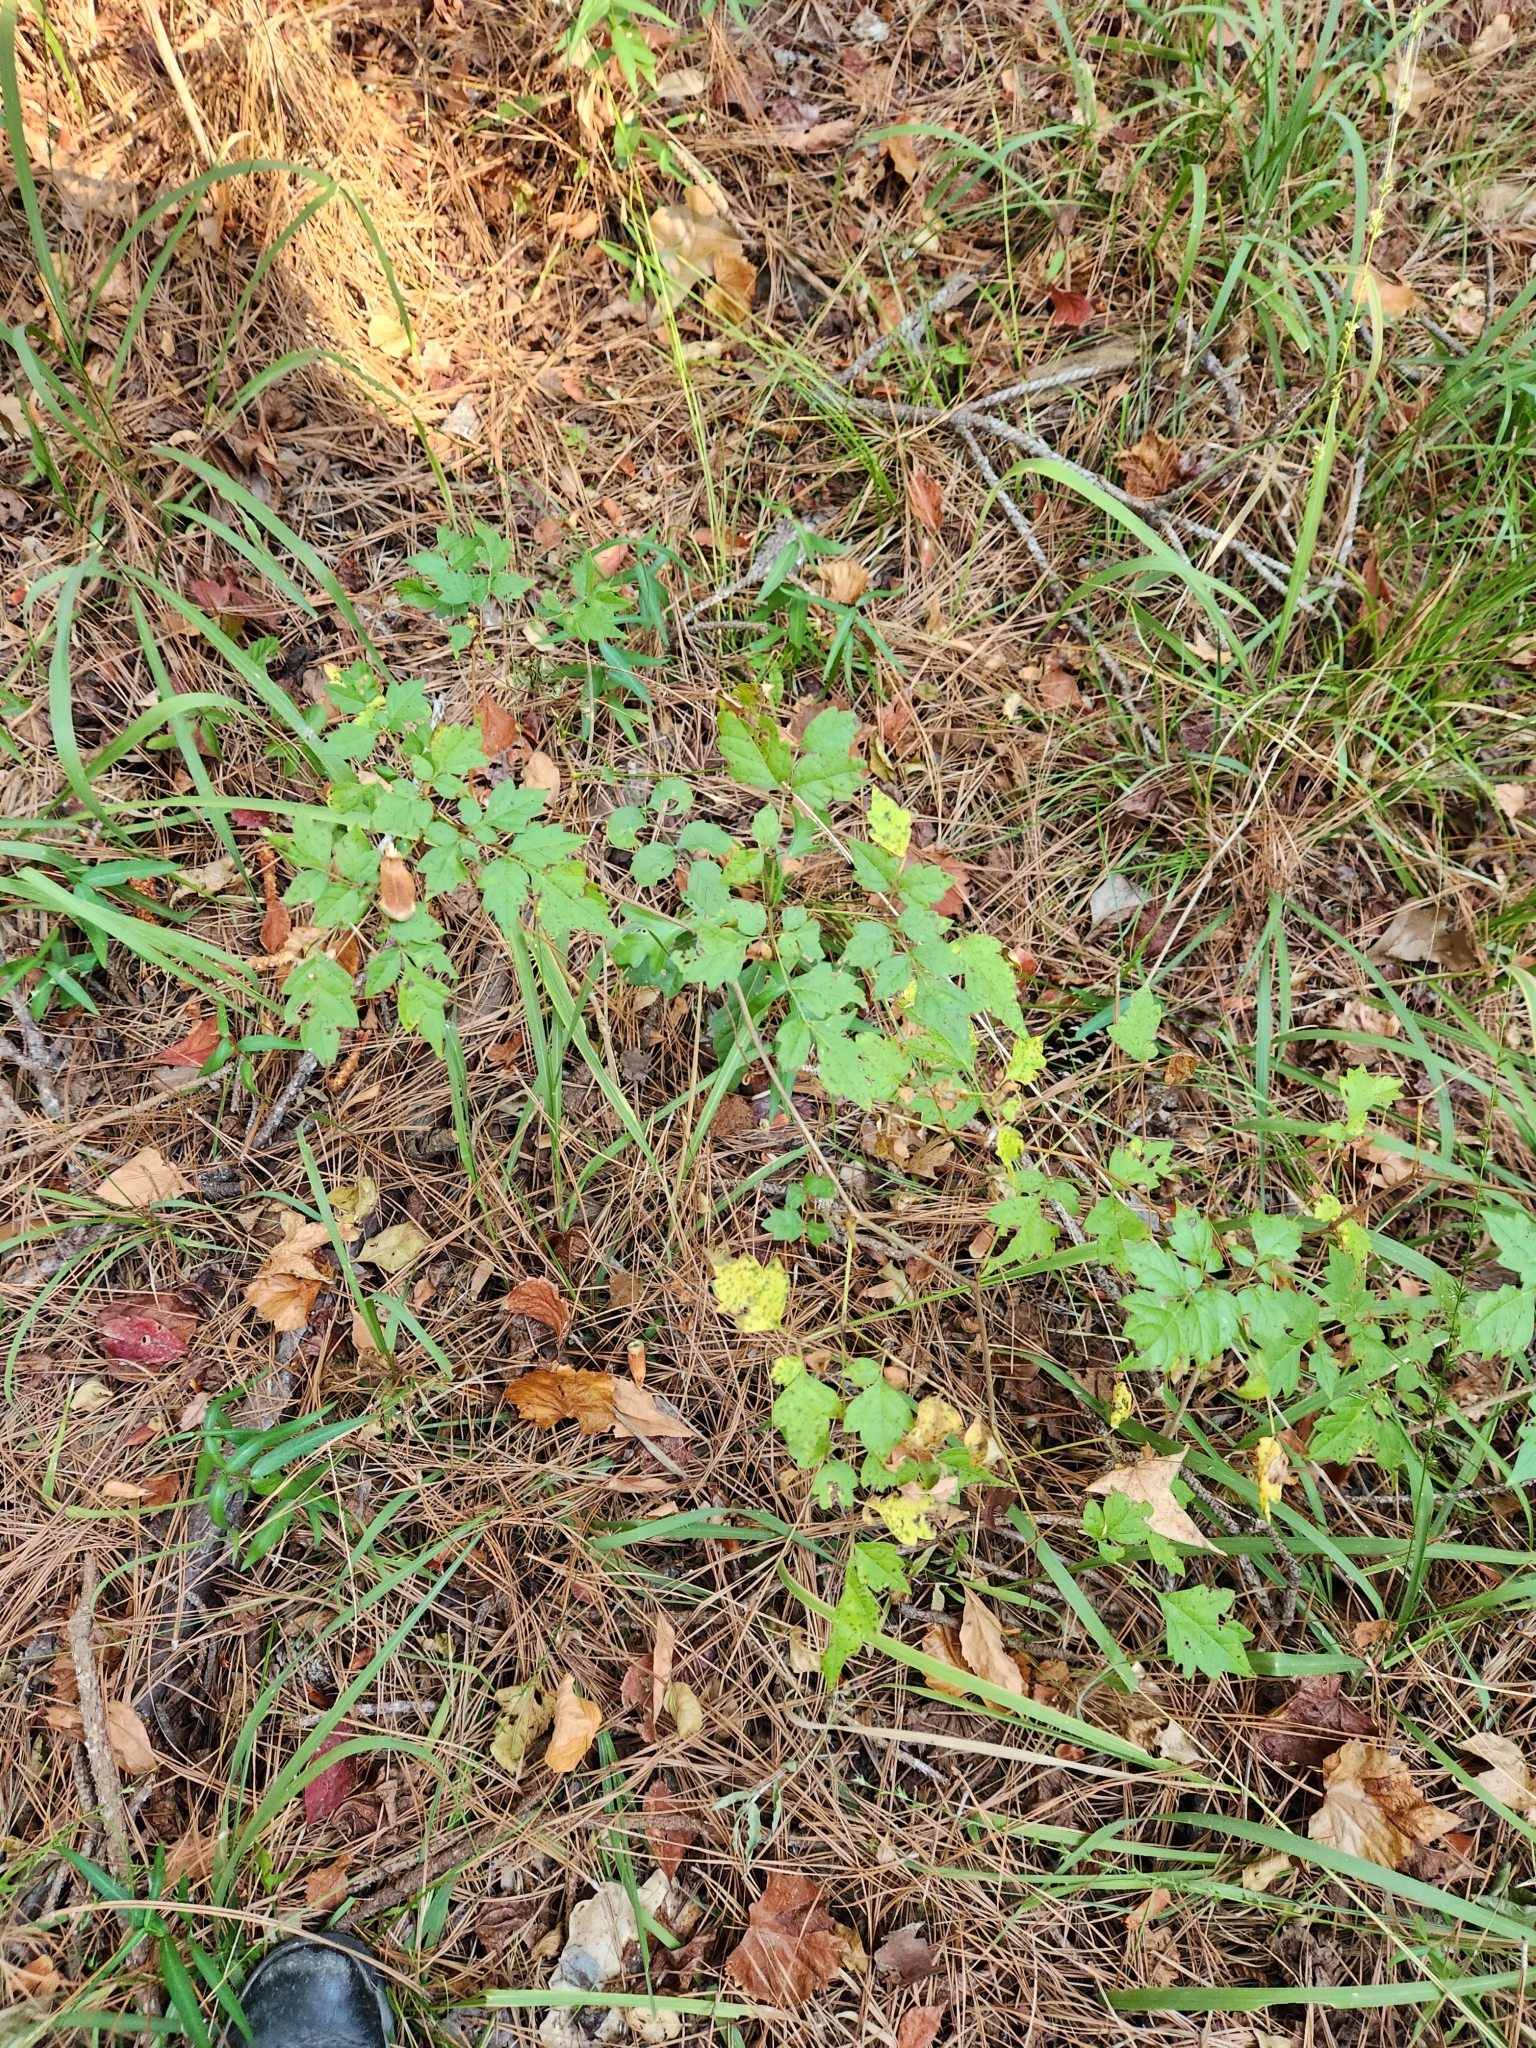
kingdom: Plantae
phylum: Tracheophyta
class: Magnoliopsida
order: Vitales
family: Vitaceae
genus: Nekemias
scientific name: Nekemias arborea
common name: Peppervine
